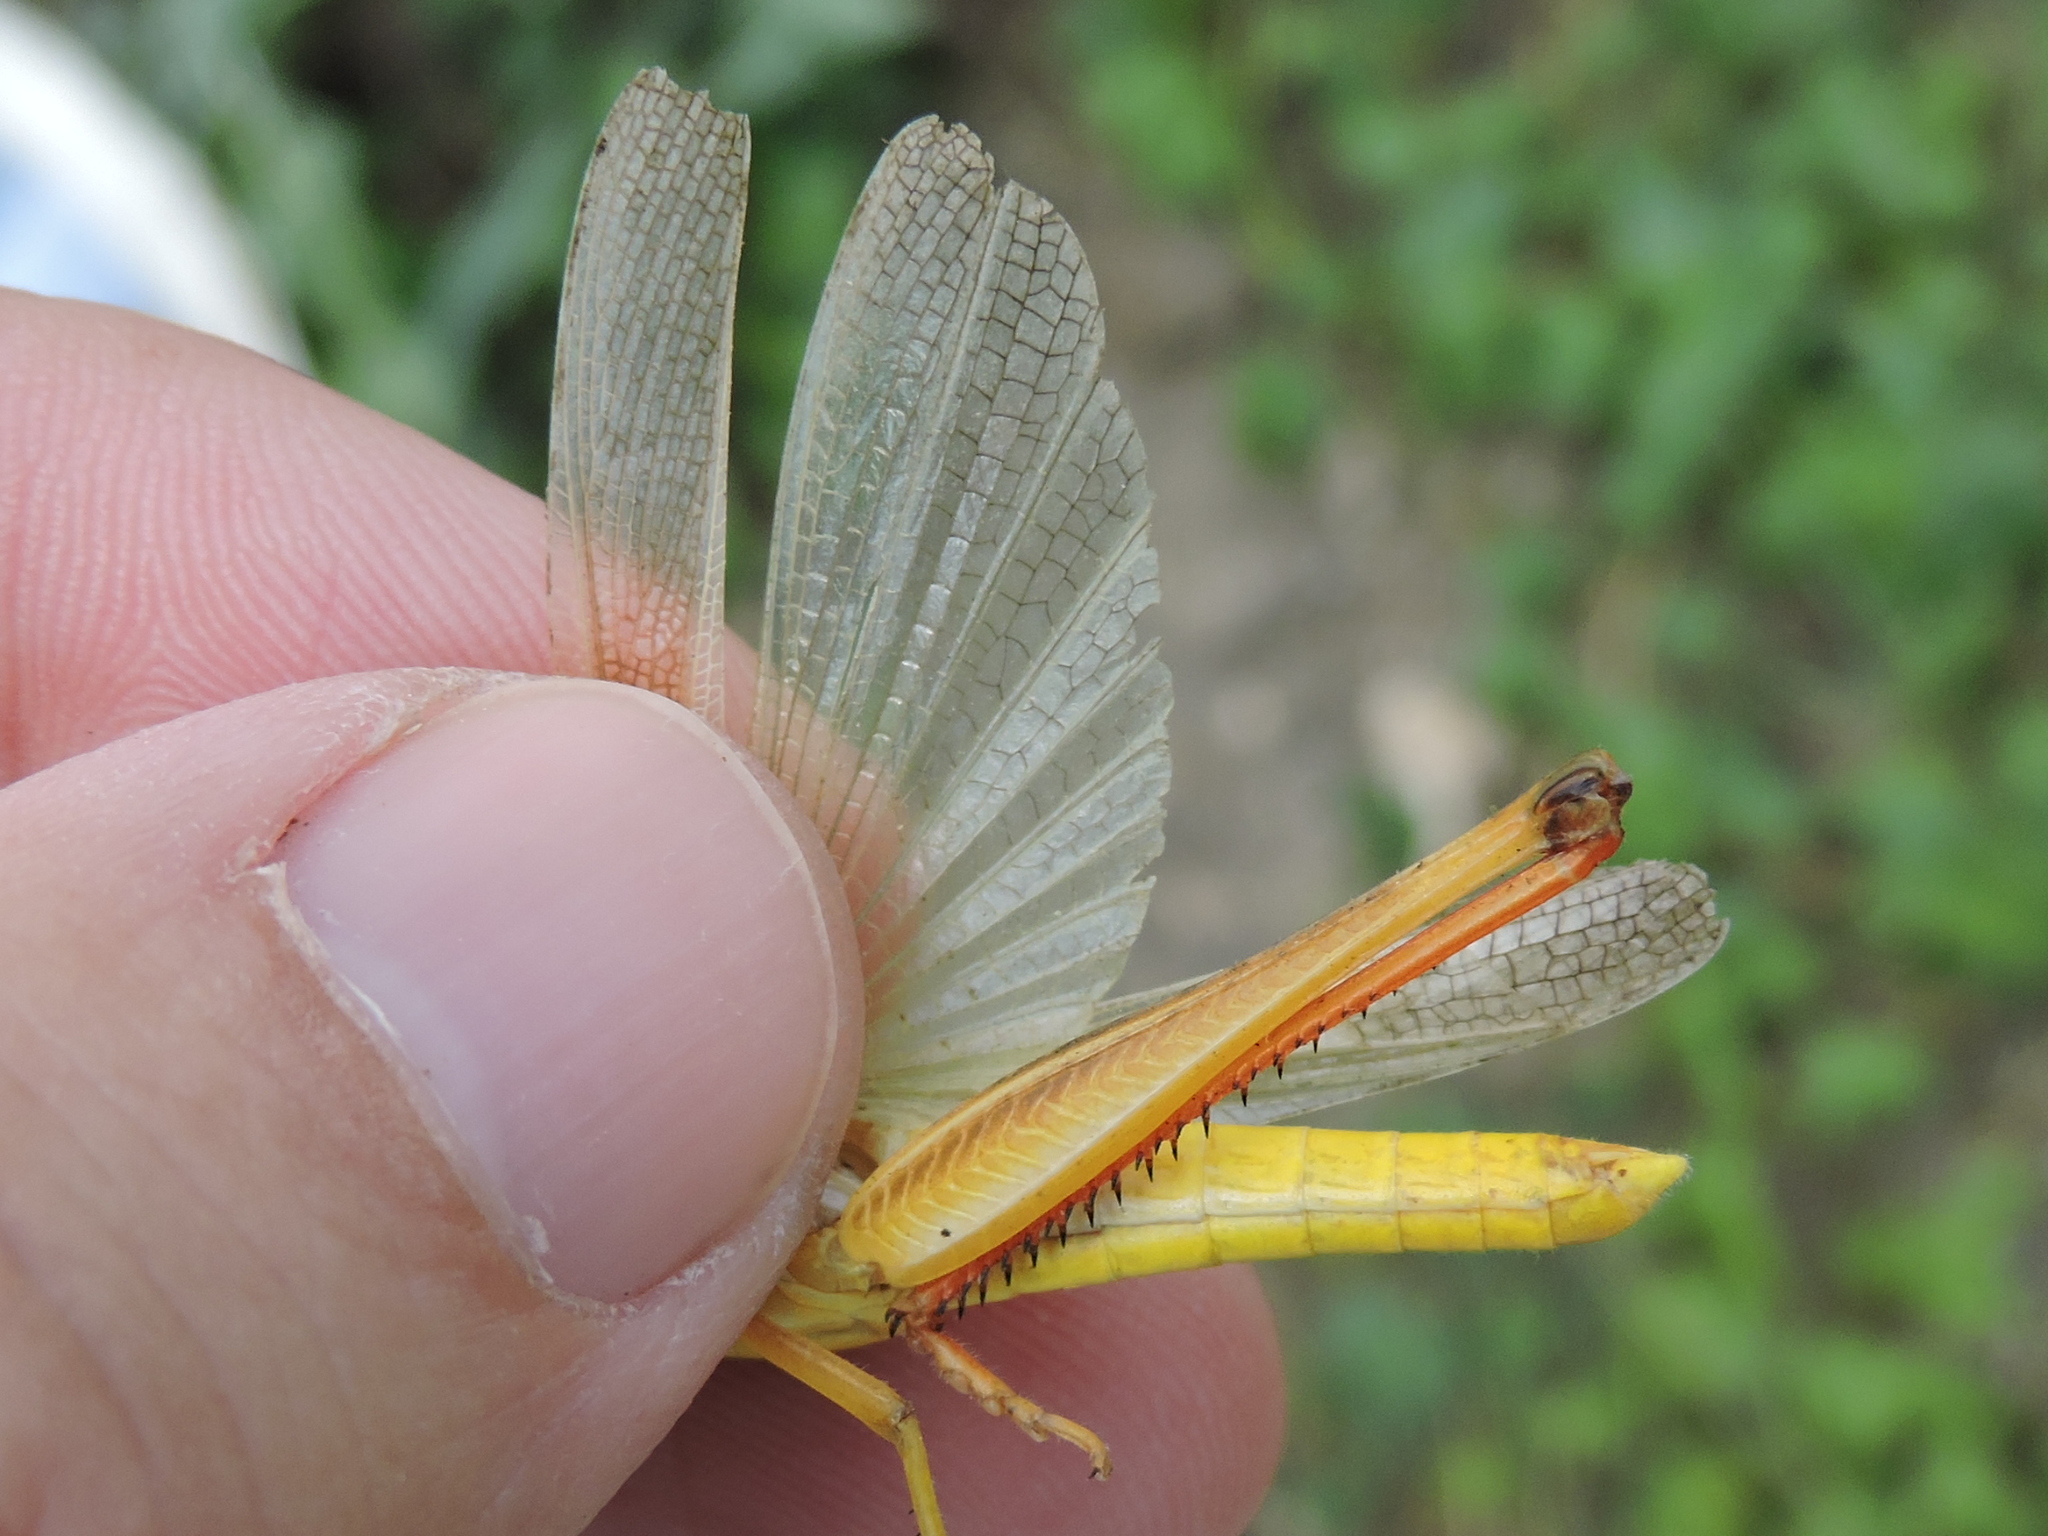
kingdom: Animalia
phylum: Arthropoda
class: Insecta
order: Orthoptera
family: Acrididae
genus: Mermiria
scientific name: Mermiria bivittata
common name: Two-striped mermiria grasshopper
